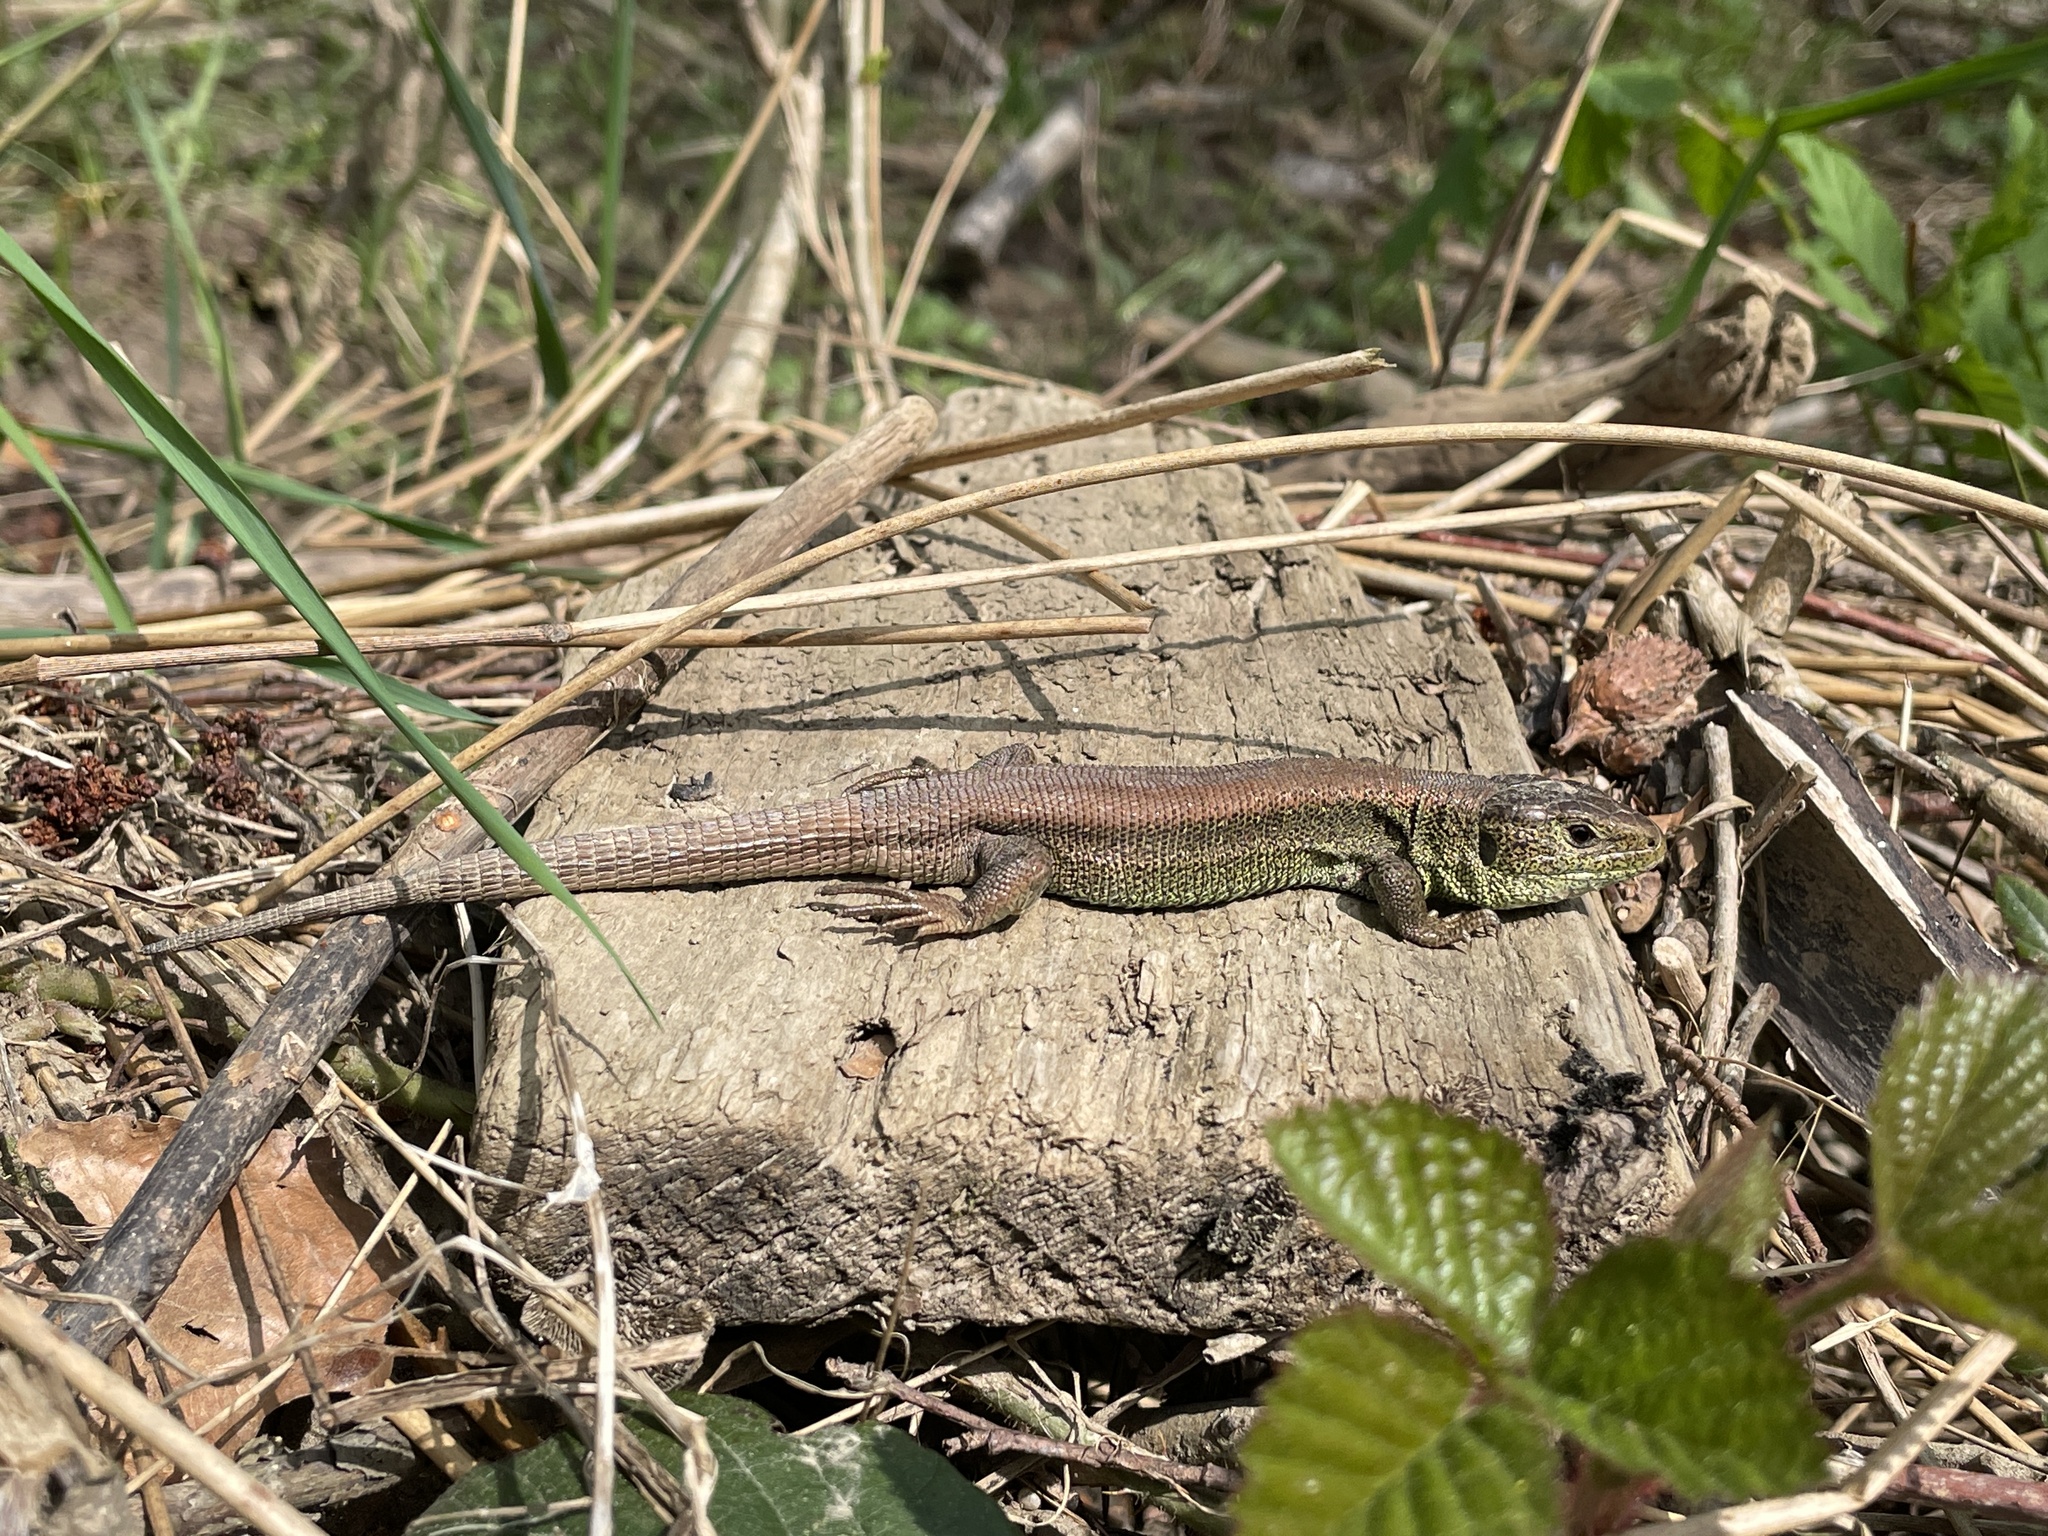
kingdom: Animalia
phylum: Chordata
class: Squamata
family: Lacertidae
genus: Lacerta
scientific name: Lacerta agilis
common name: Sand lizard
